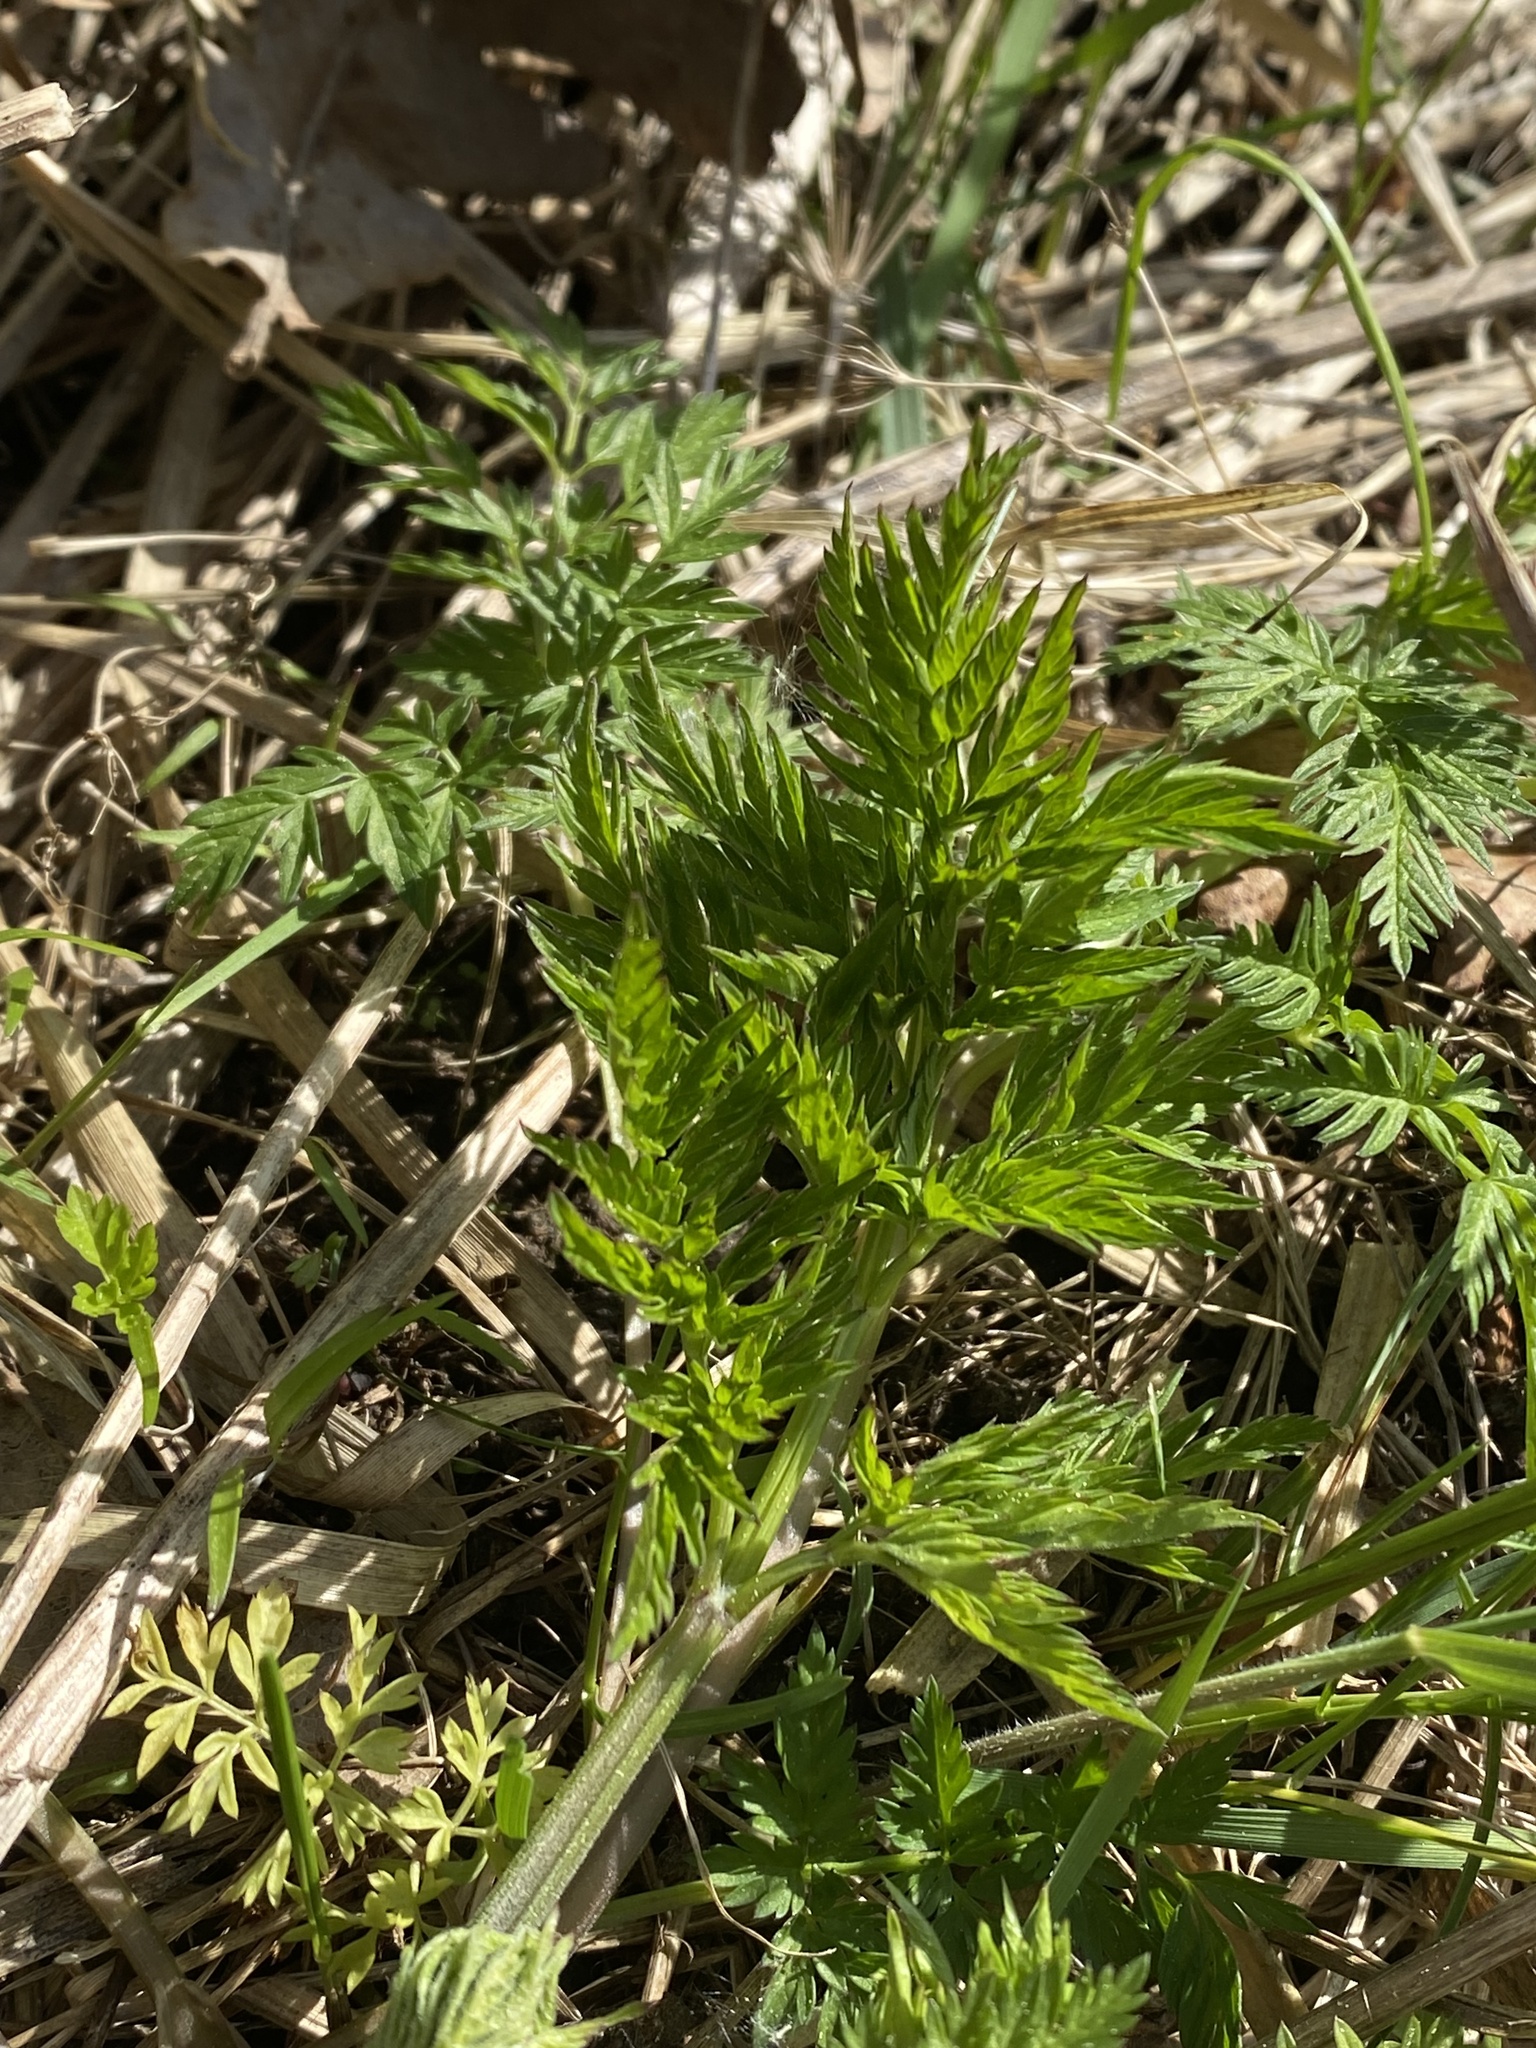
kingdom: Plantae
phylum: Tracheophyta
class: Magnoliopsida
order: Apiales
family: Apiaceae
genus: Anthriscus
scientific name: Anthriscus sylvestris
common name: Cow parsley
